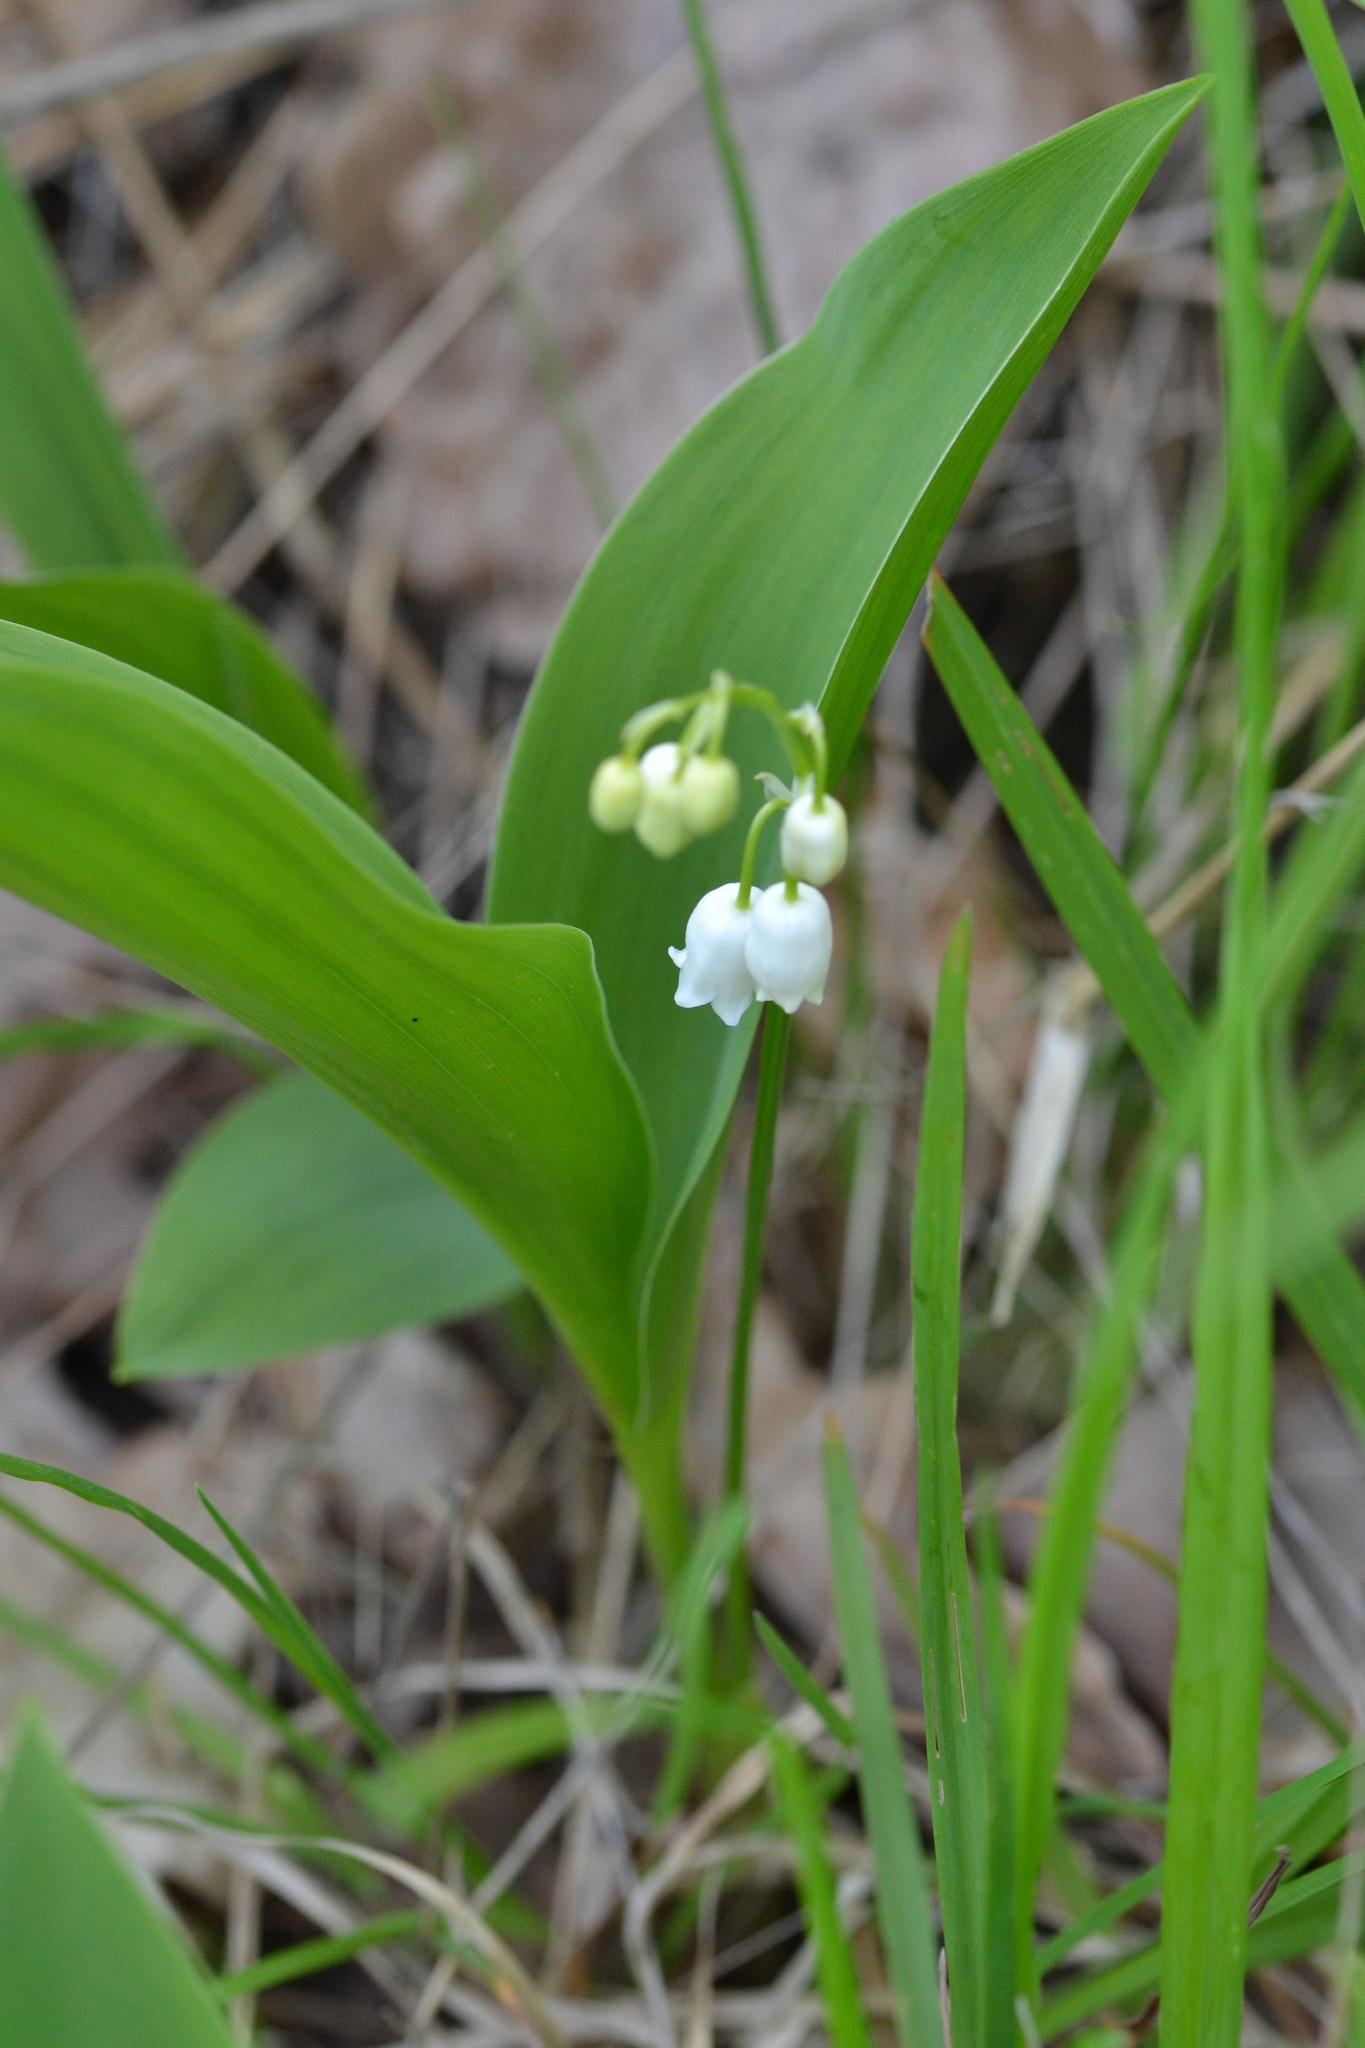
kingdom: Plantae
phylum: Tracheophyta
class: Liliopsida
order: Asparagales
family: Asparagaceae
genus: Convallaria
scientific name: Convallaria majalis
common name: Lily-of-the-valley
